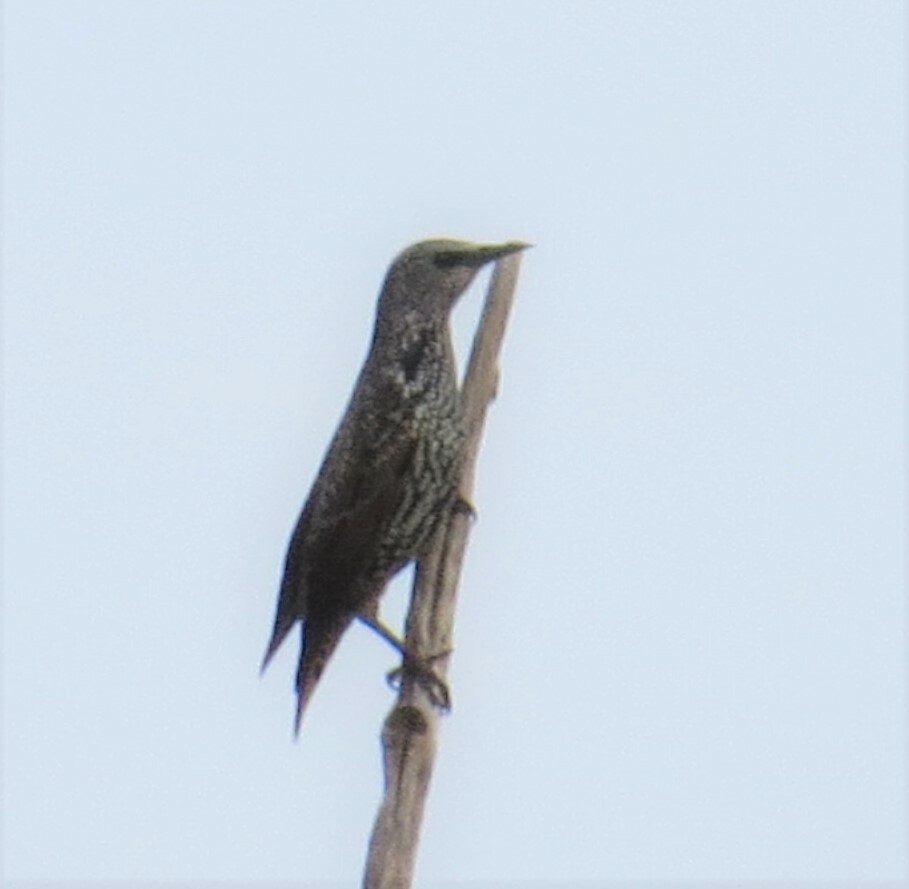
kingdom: Animalia
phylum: Chordata
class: Aves
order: Passeriformes
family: Sturnidae
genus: Sturnus
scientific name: Sturnus vulgaris
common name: Common starling
